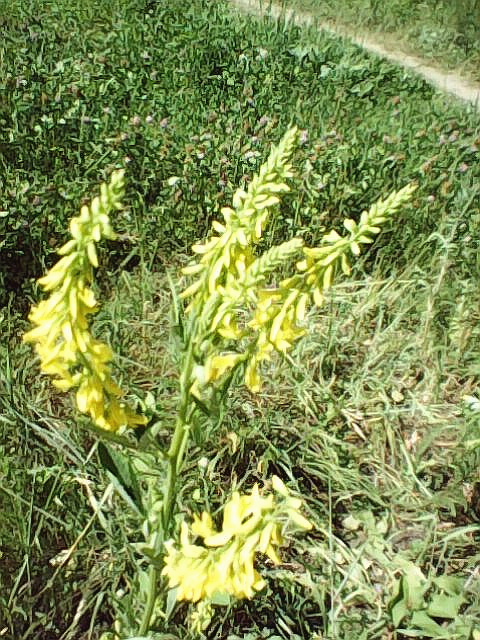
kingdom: Plantae
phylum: Tracheophyta
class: Magnoliopsida
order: Fabales
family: Fabaceae
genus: Melilotus
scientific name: Melilotus officinalis
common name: Sweetclover
